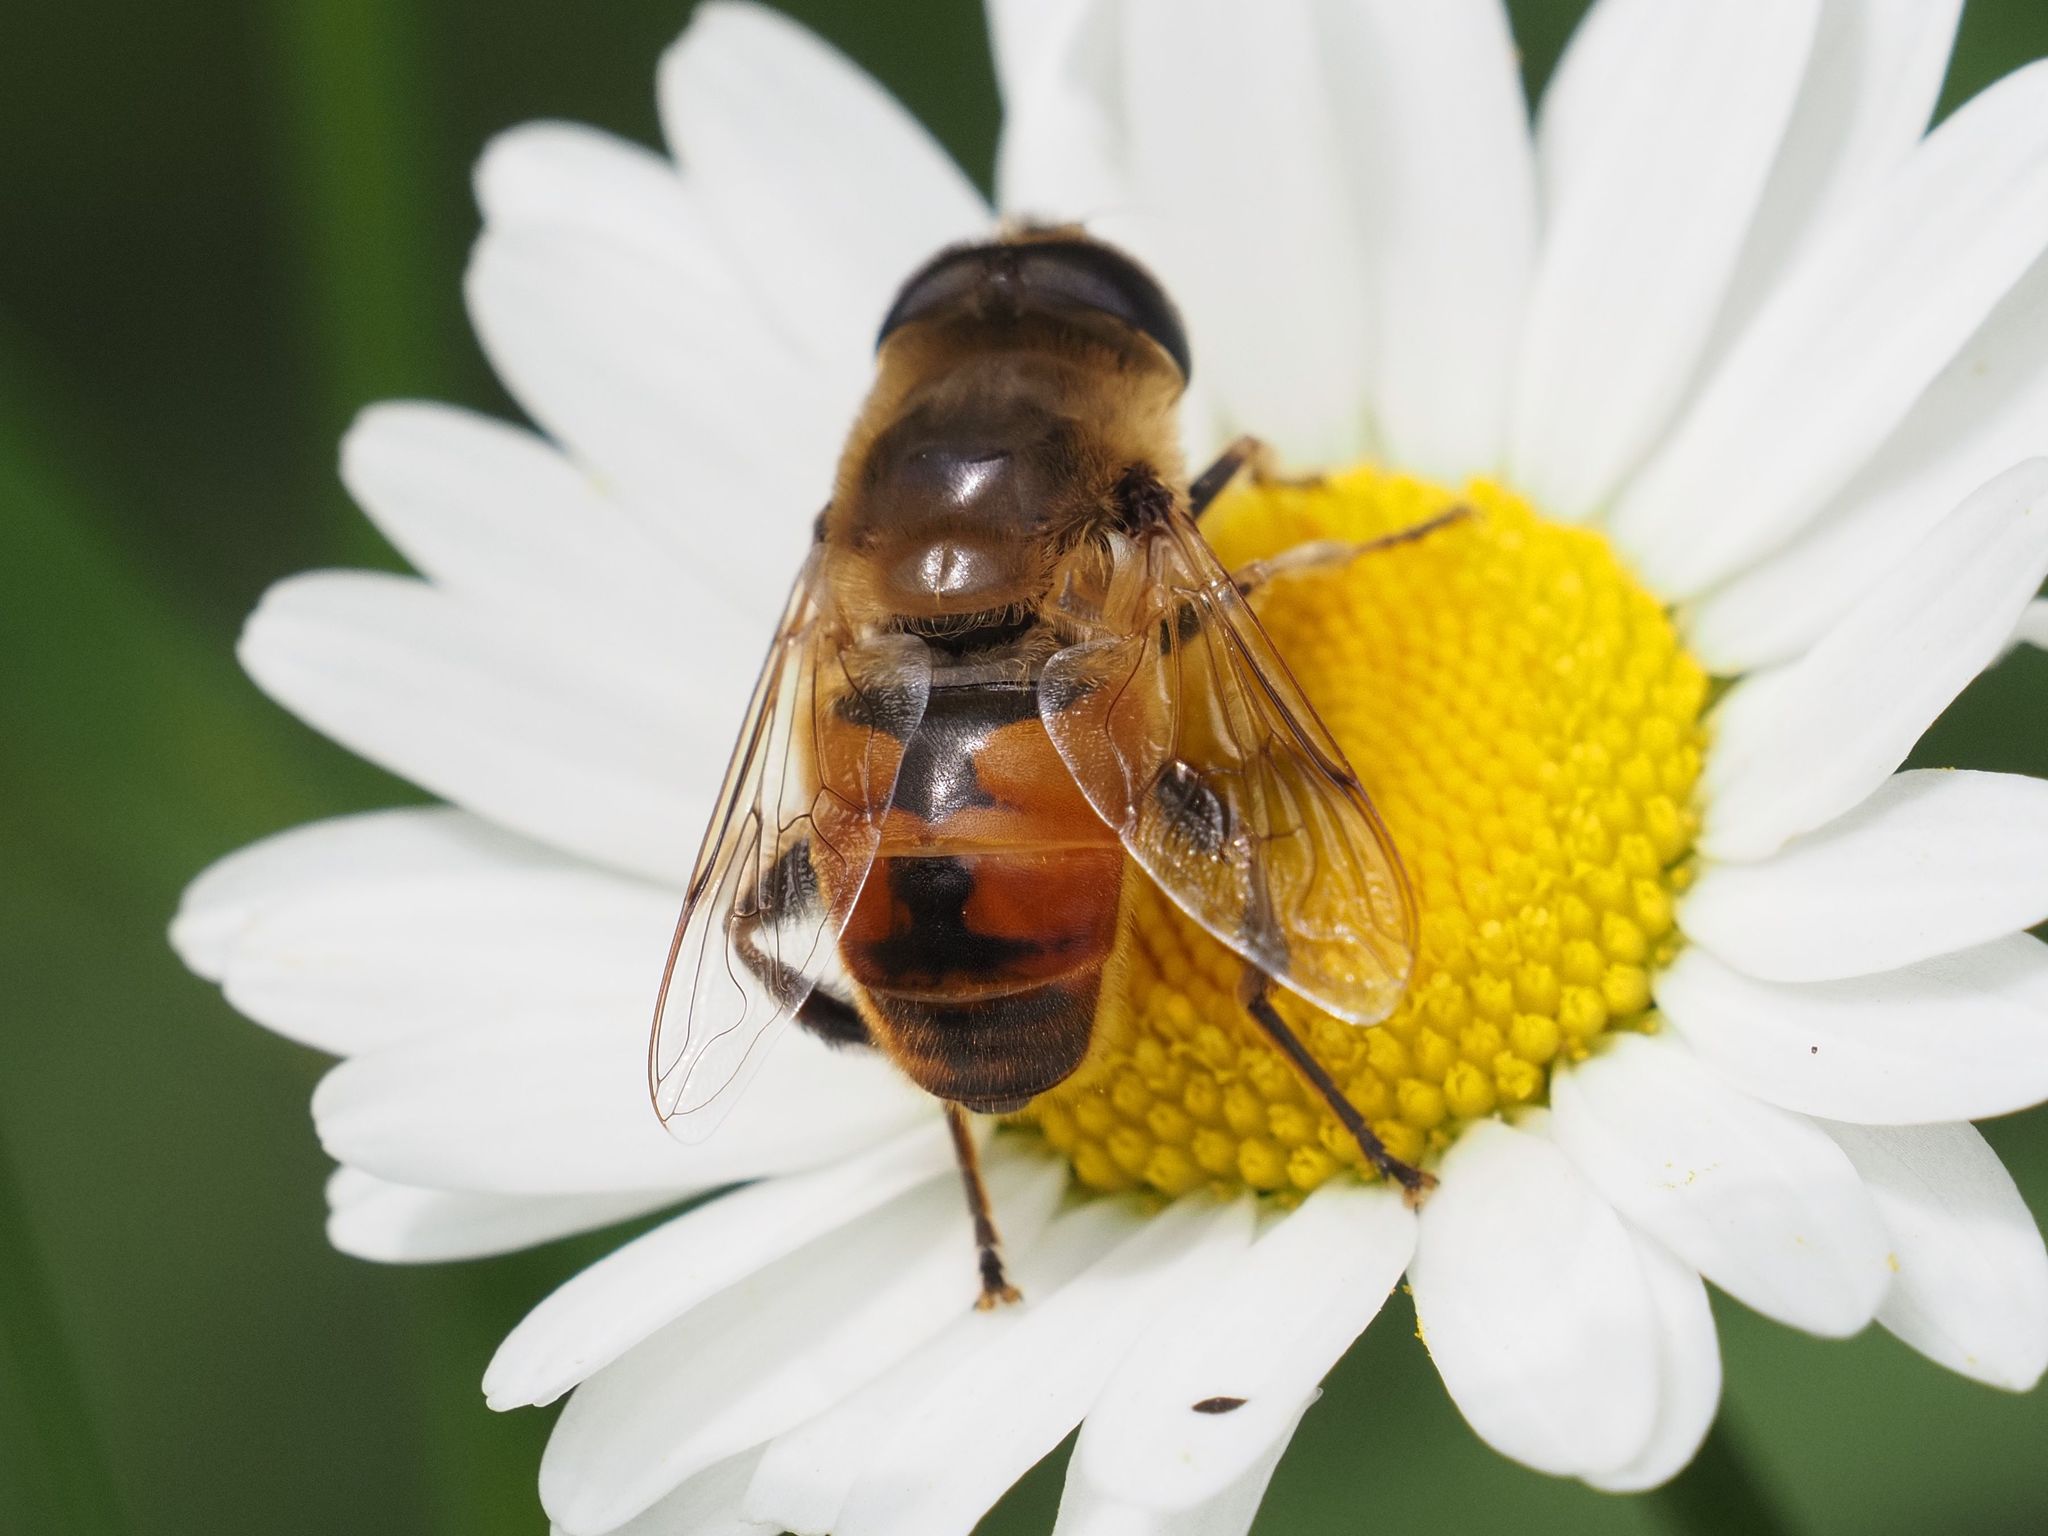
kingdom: Animalia
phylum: Arthropoda
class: Insecta
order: Diptera
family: Syrphidae
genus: Eristalis
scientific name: Eristalis tenax
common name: Drone fly
